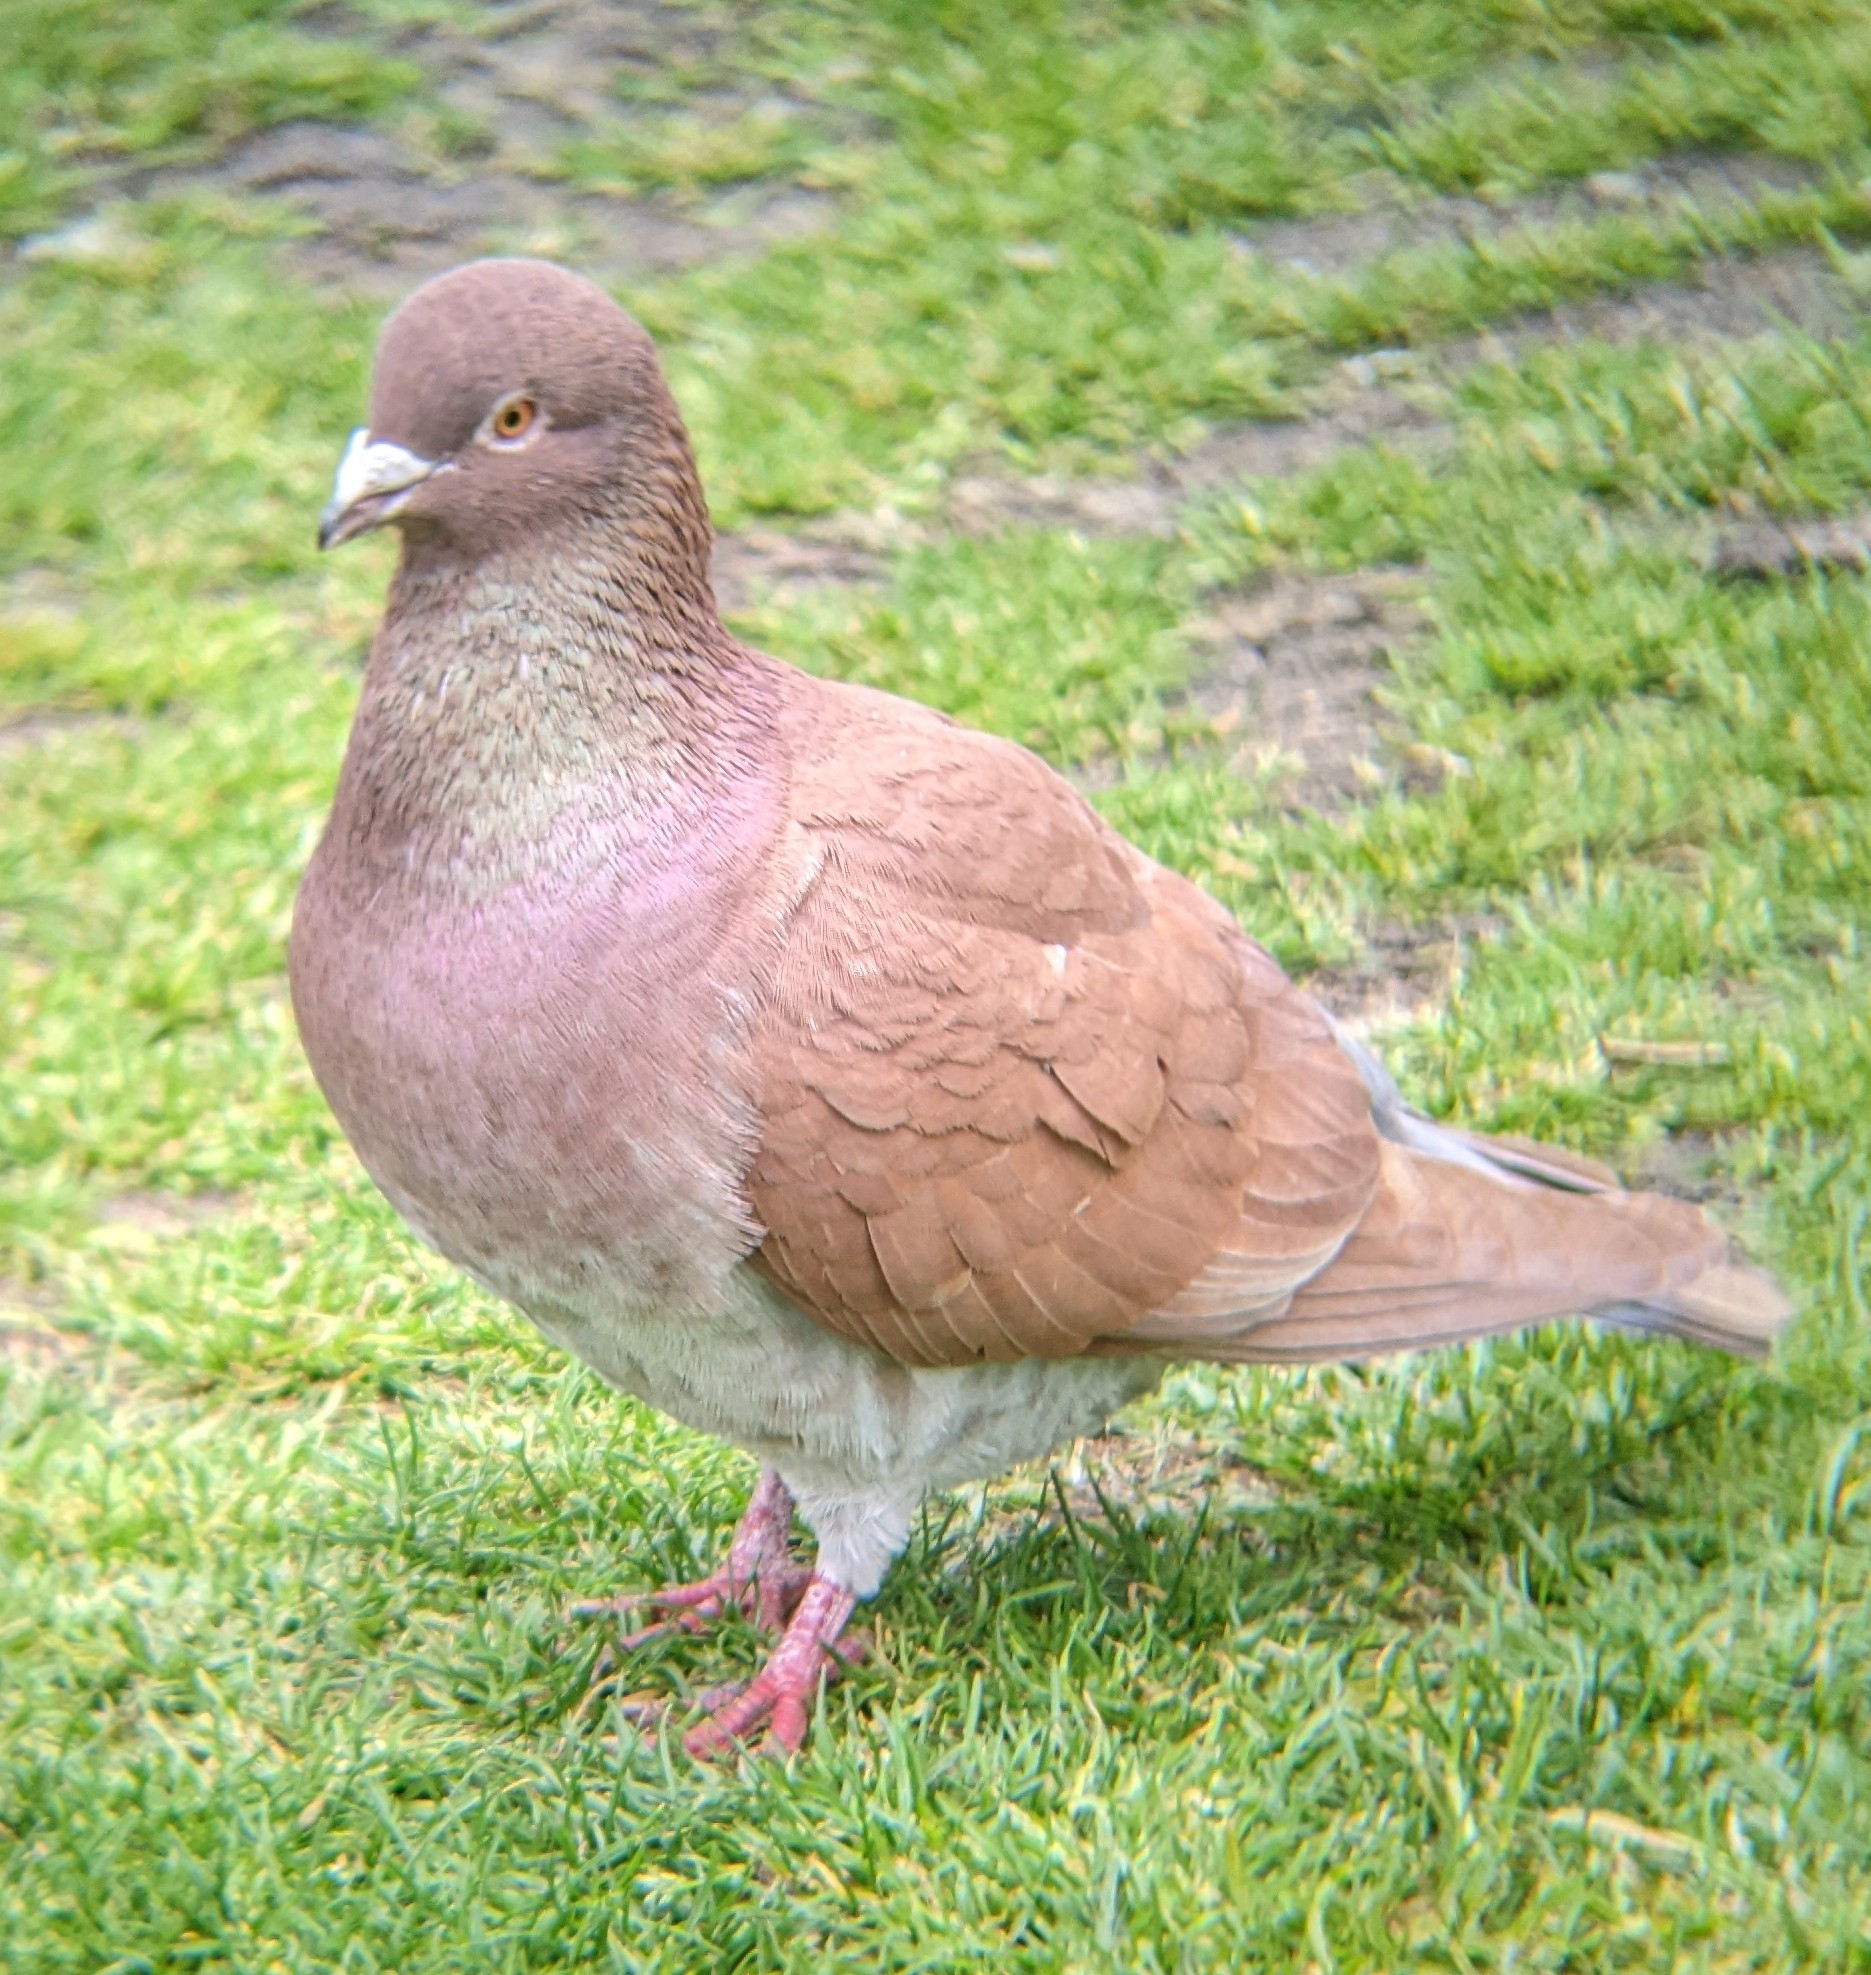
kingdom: Animalia
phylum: Chordata
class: Aves
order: Columbiformes
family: Columbidae
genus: Columba
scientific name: Columba livia
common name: Rock pigeon
